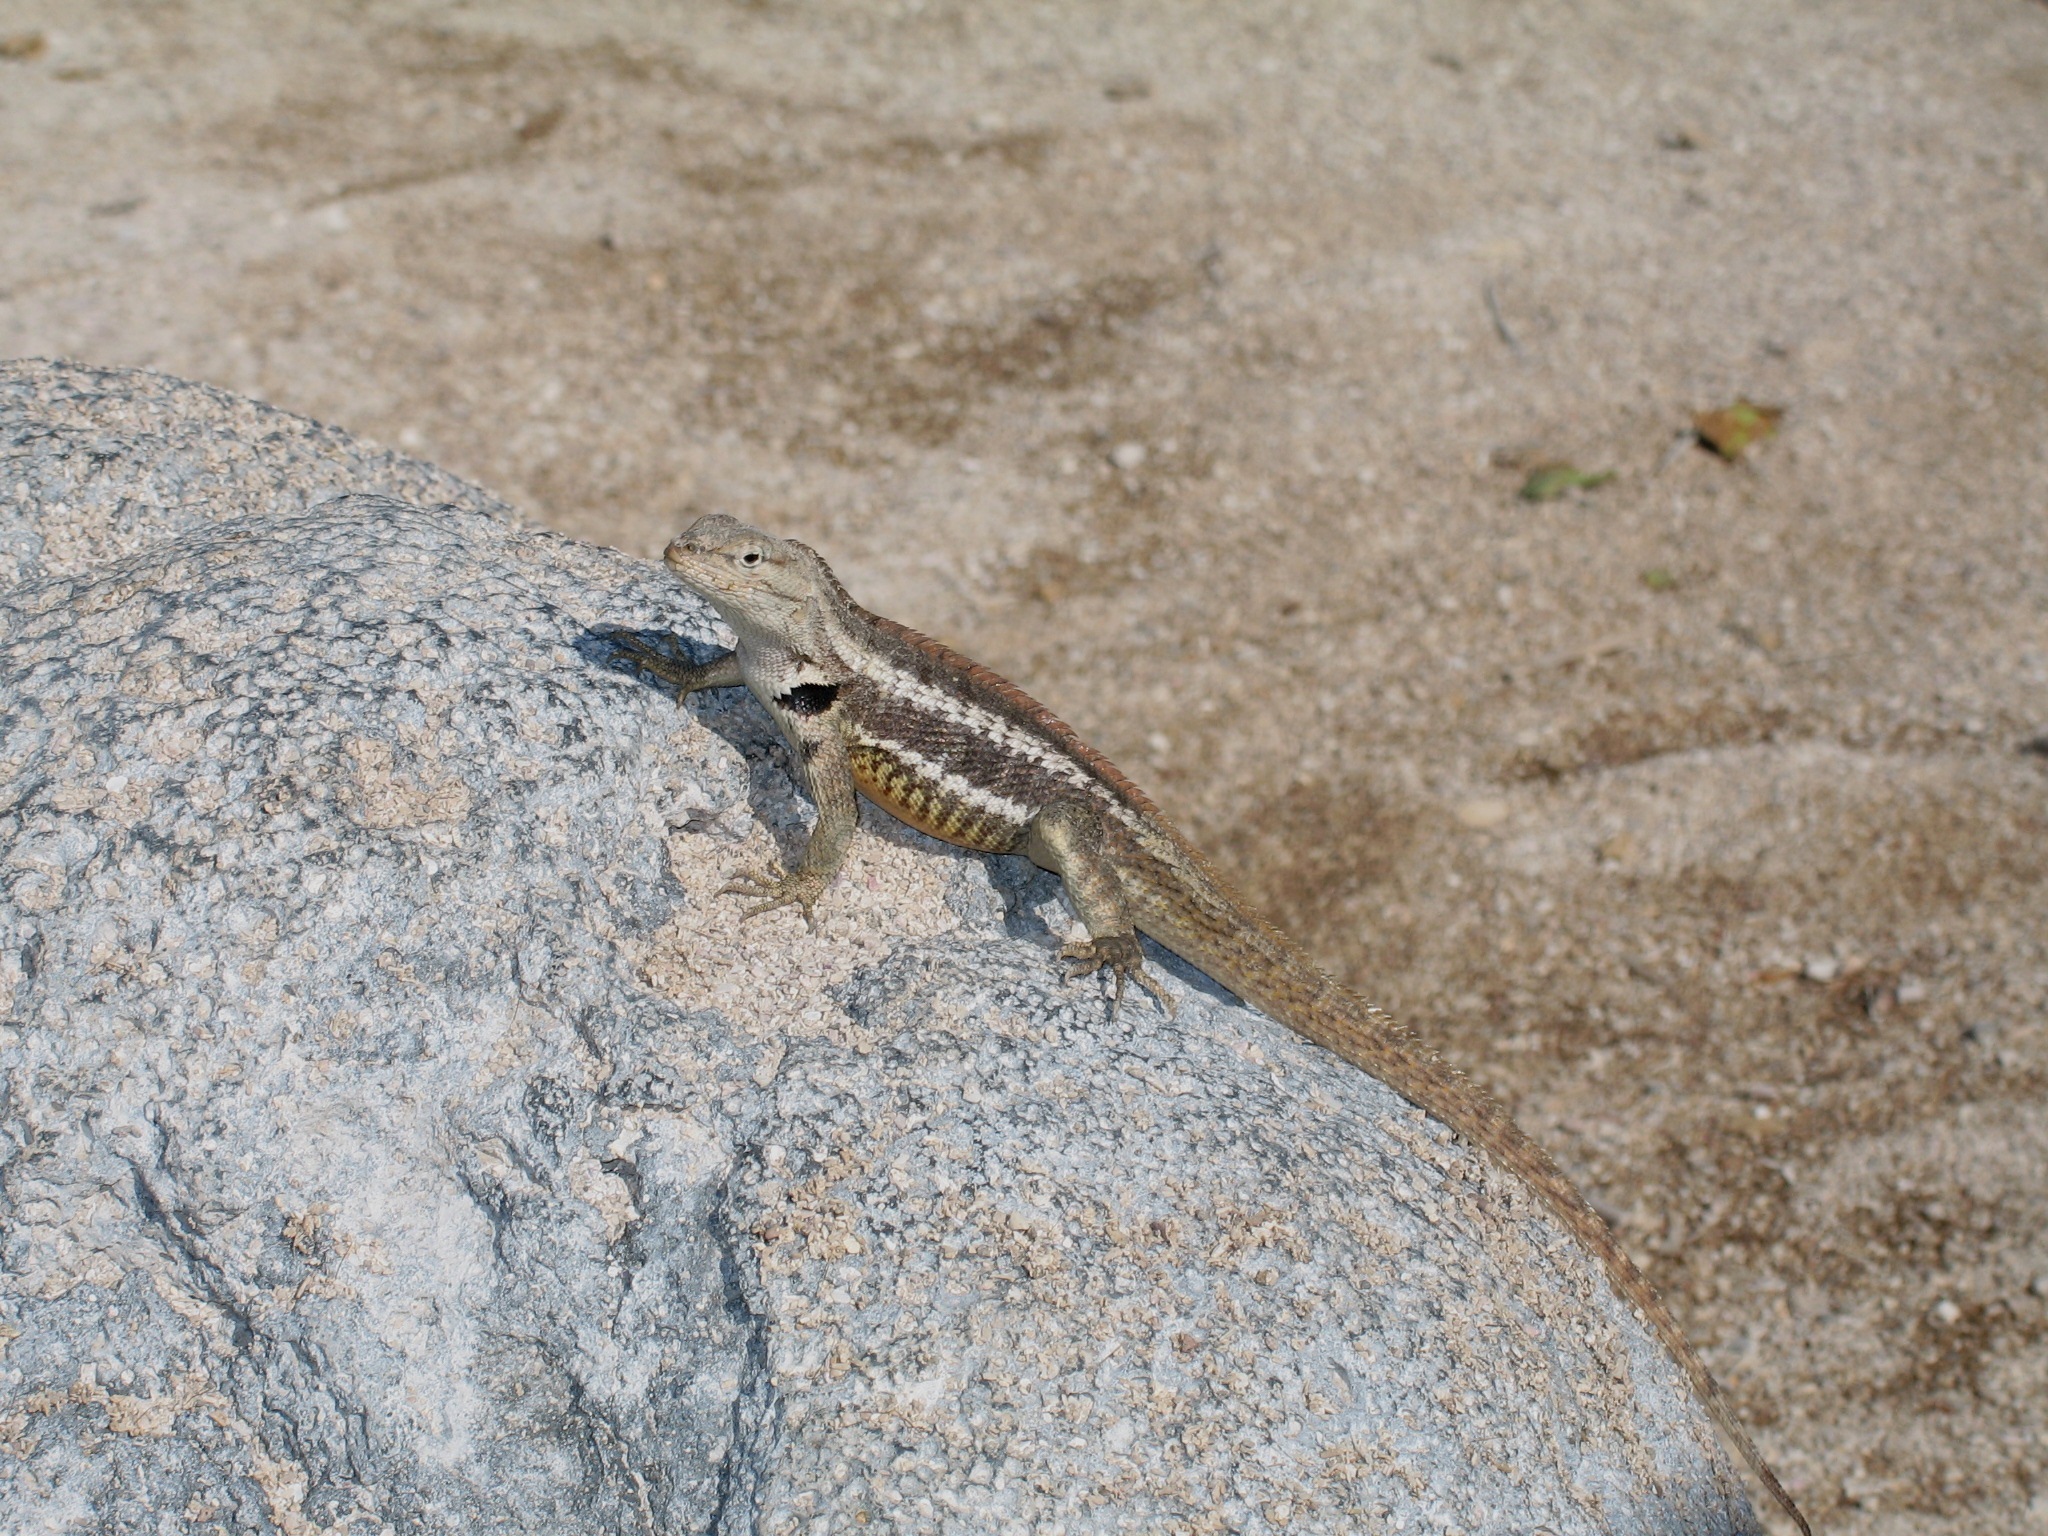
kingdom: Animalia
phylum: Chordata
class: Squamata
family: Tropiduridae
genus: Microlophus
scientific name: Microlophus bivittatus
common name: San cristobal lava lizard
